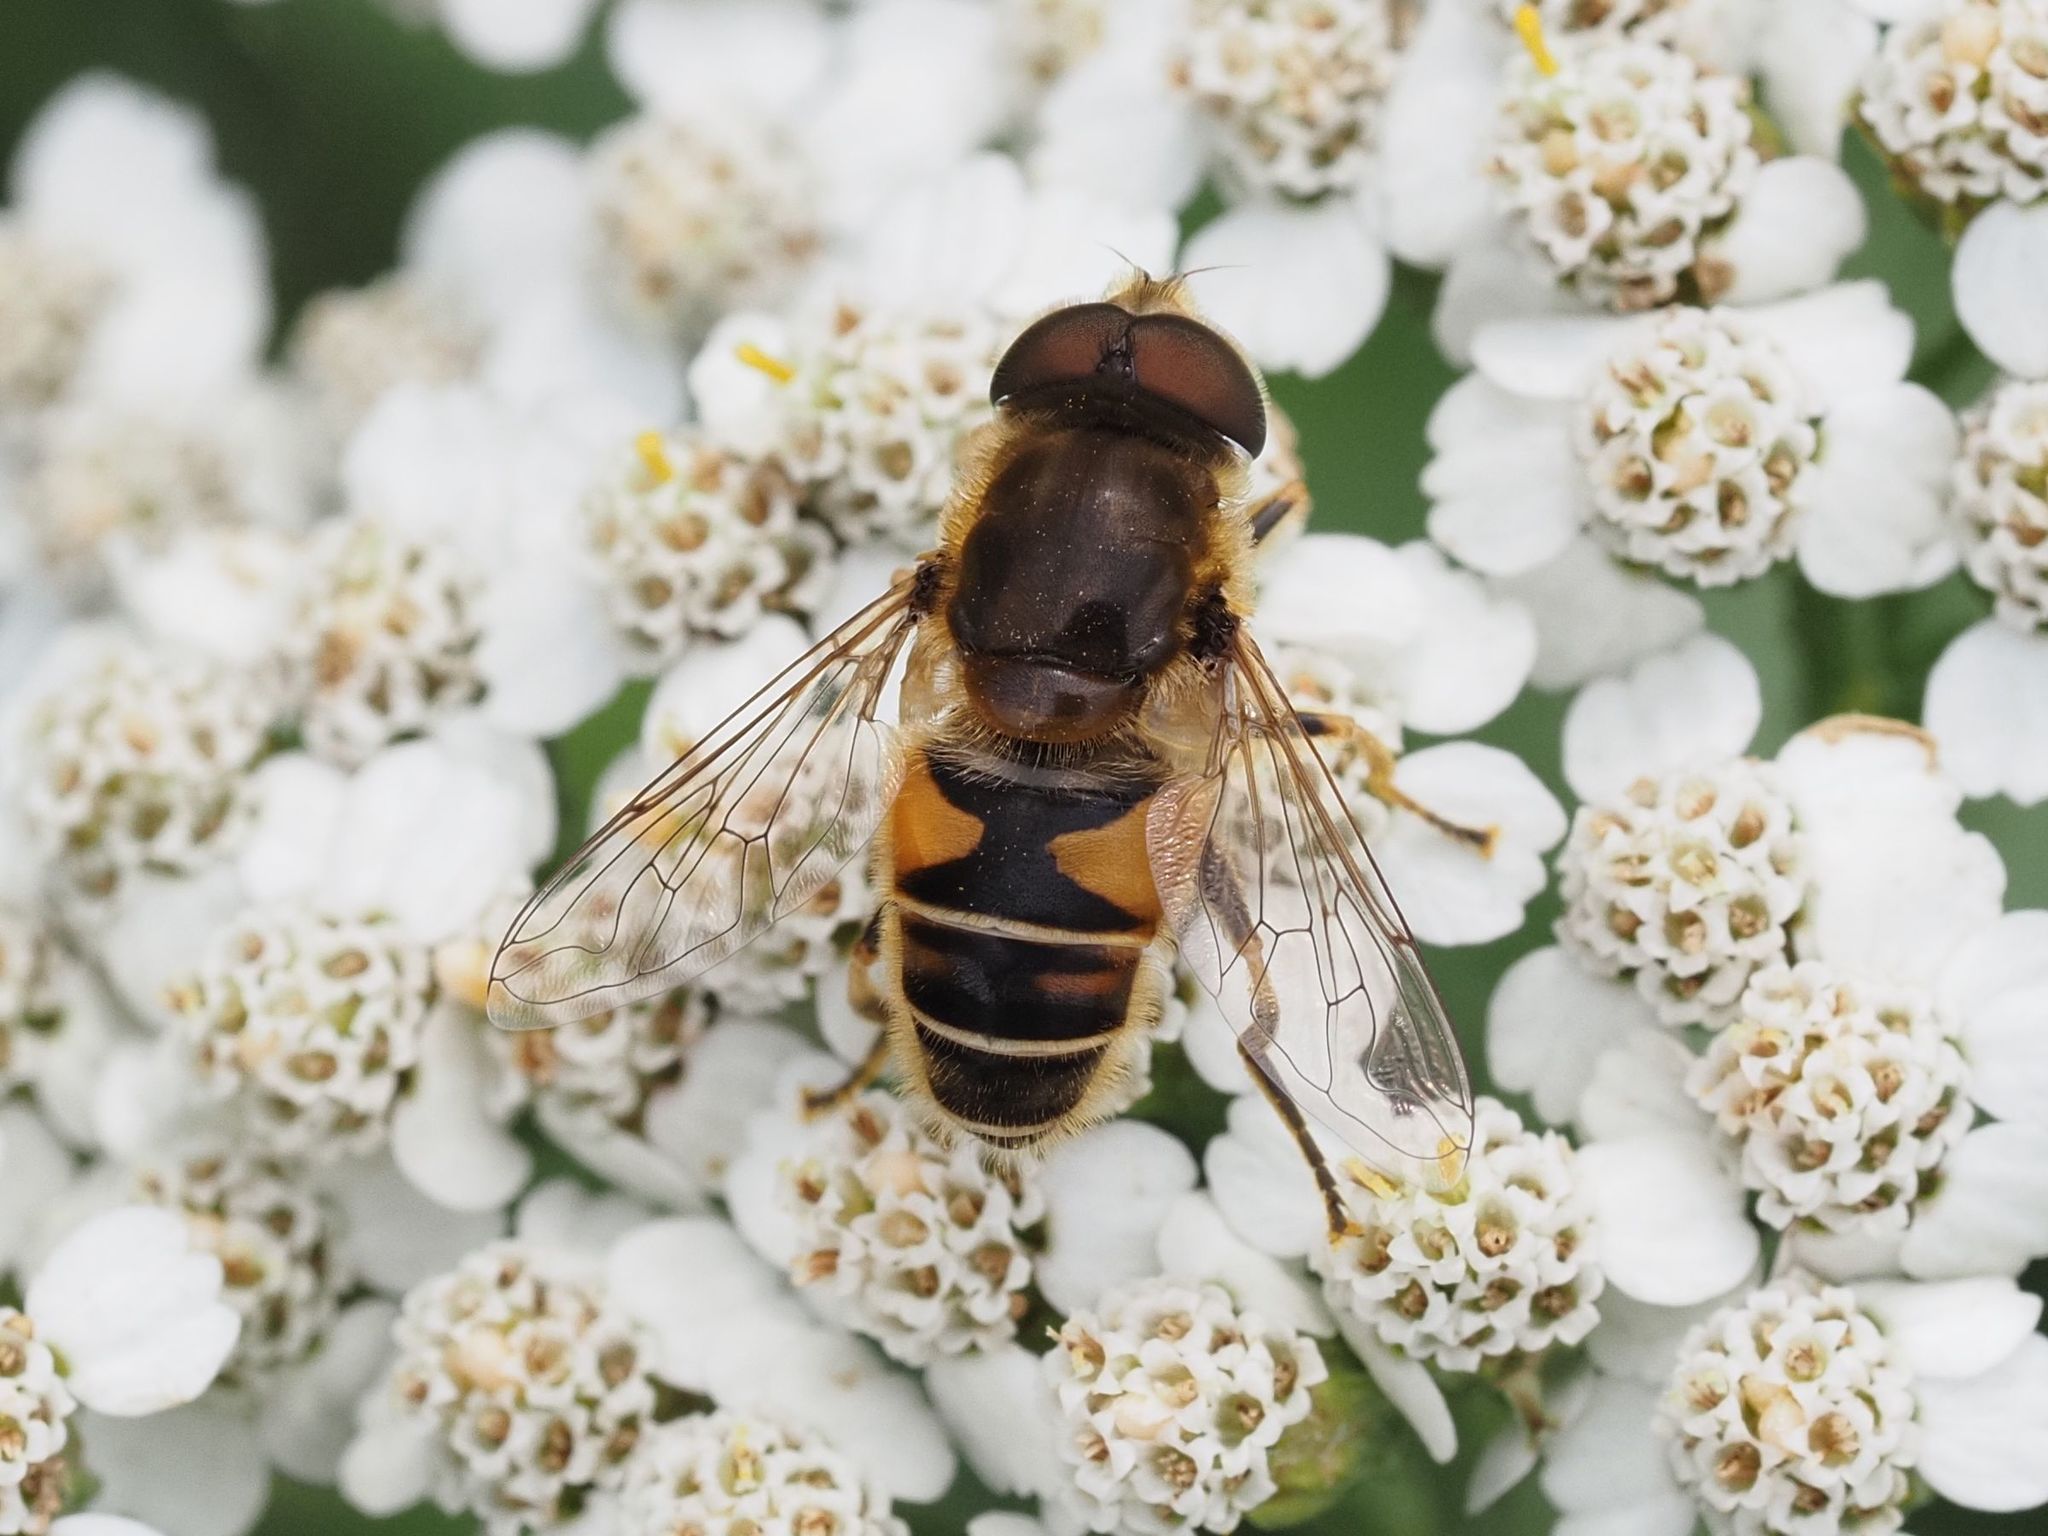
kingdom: Animalia
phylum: Arthropoda
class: Insecta
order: Diptera
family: Syrphidae
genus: Eristalis
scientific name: Eristalis nemorum
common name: Orange-spined drone fly
